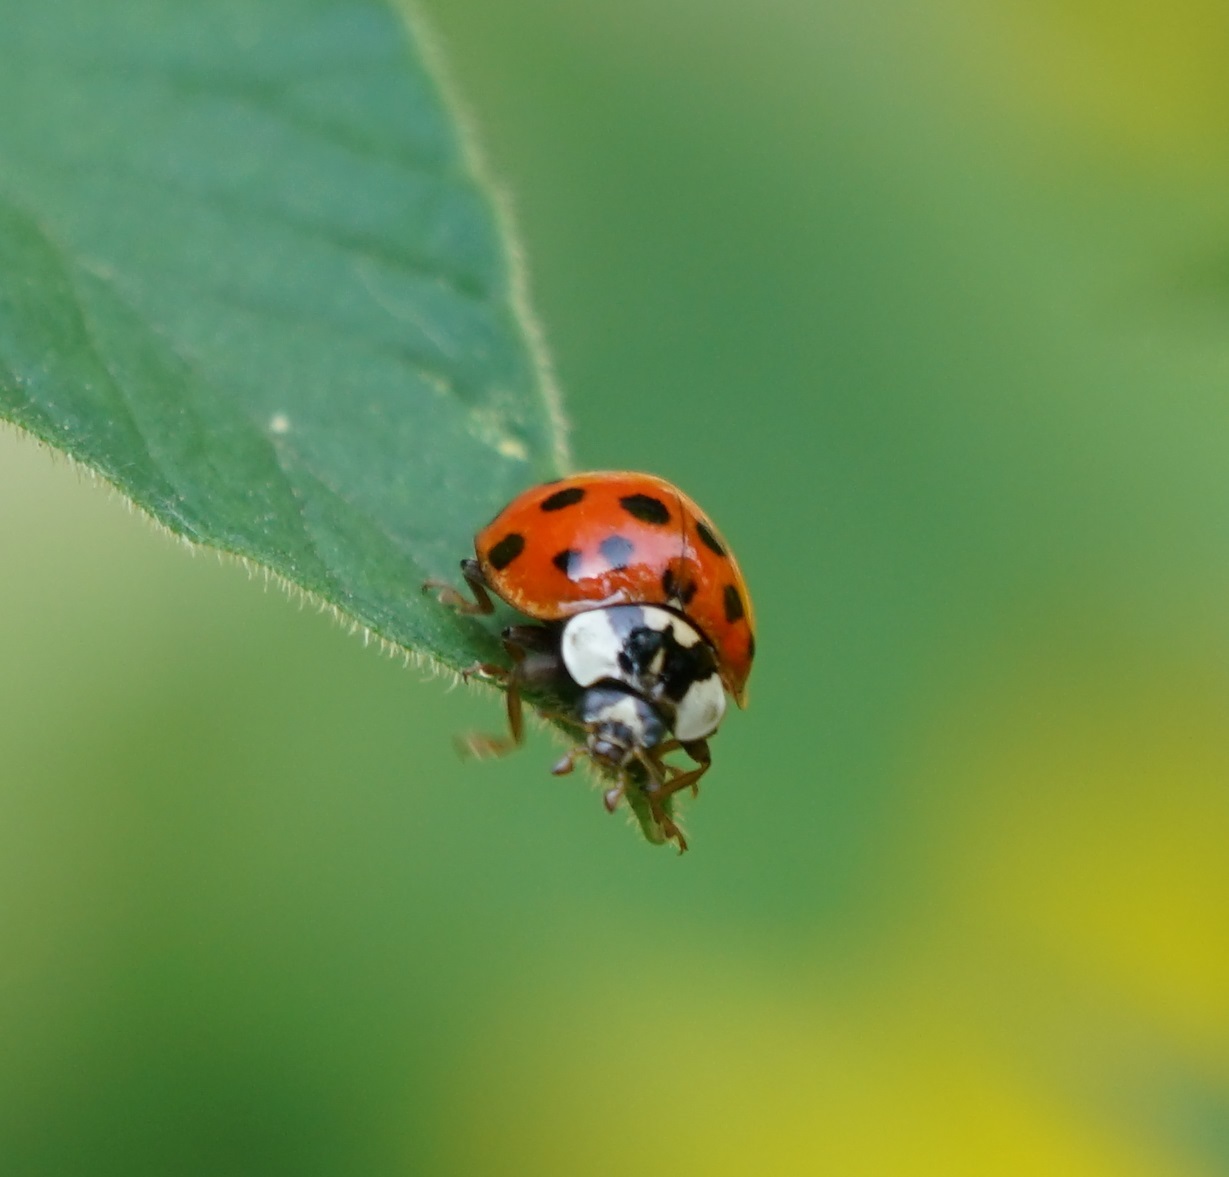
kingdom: Animalia
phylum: Arthropoda
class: Insecta
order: Coleoptera
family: Coccinellidae
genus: Harmonia
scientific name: Harmonia axyridis
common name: Harlequin ladybird
